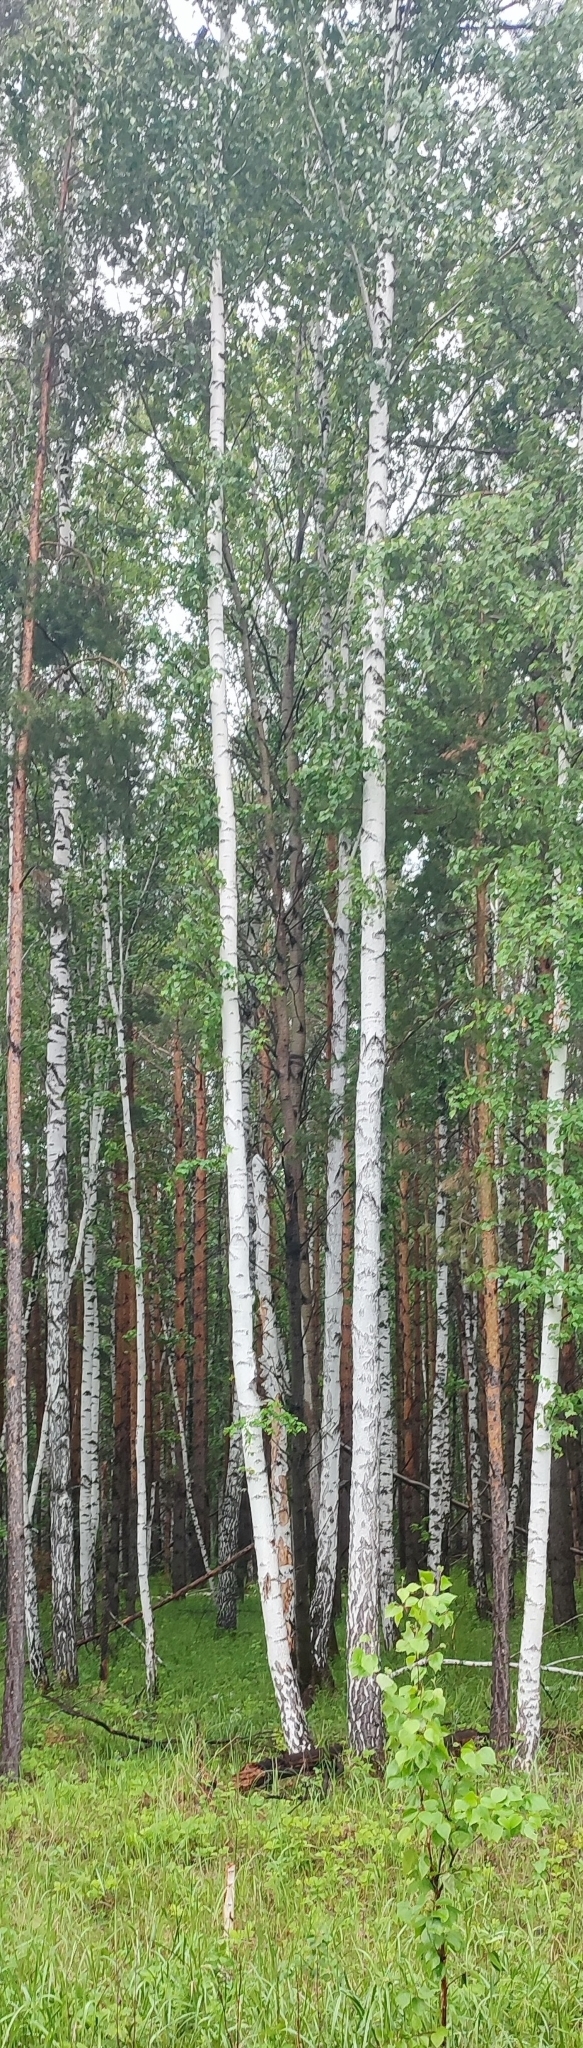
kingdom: Plantae
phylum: Tracheophyta
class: Magnoliopsida
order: Fagales
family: Betulaceae
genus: Betula
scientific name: Betula pendula
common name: Silver birch
